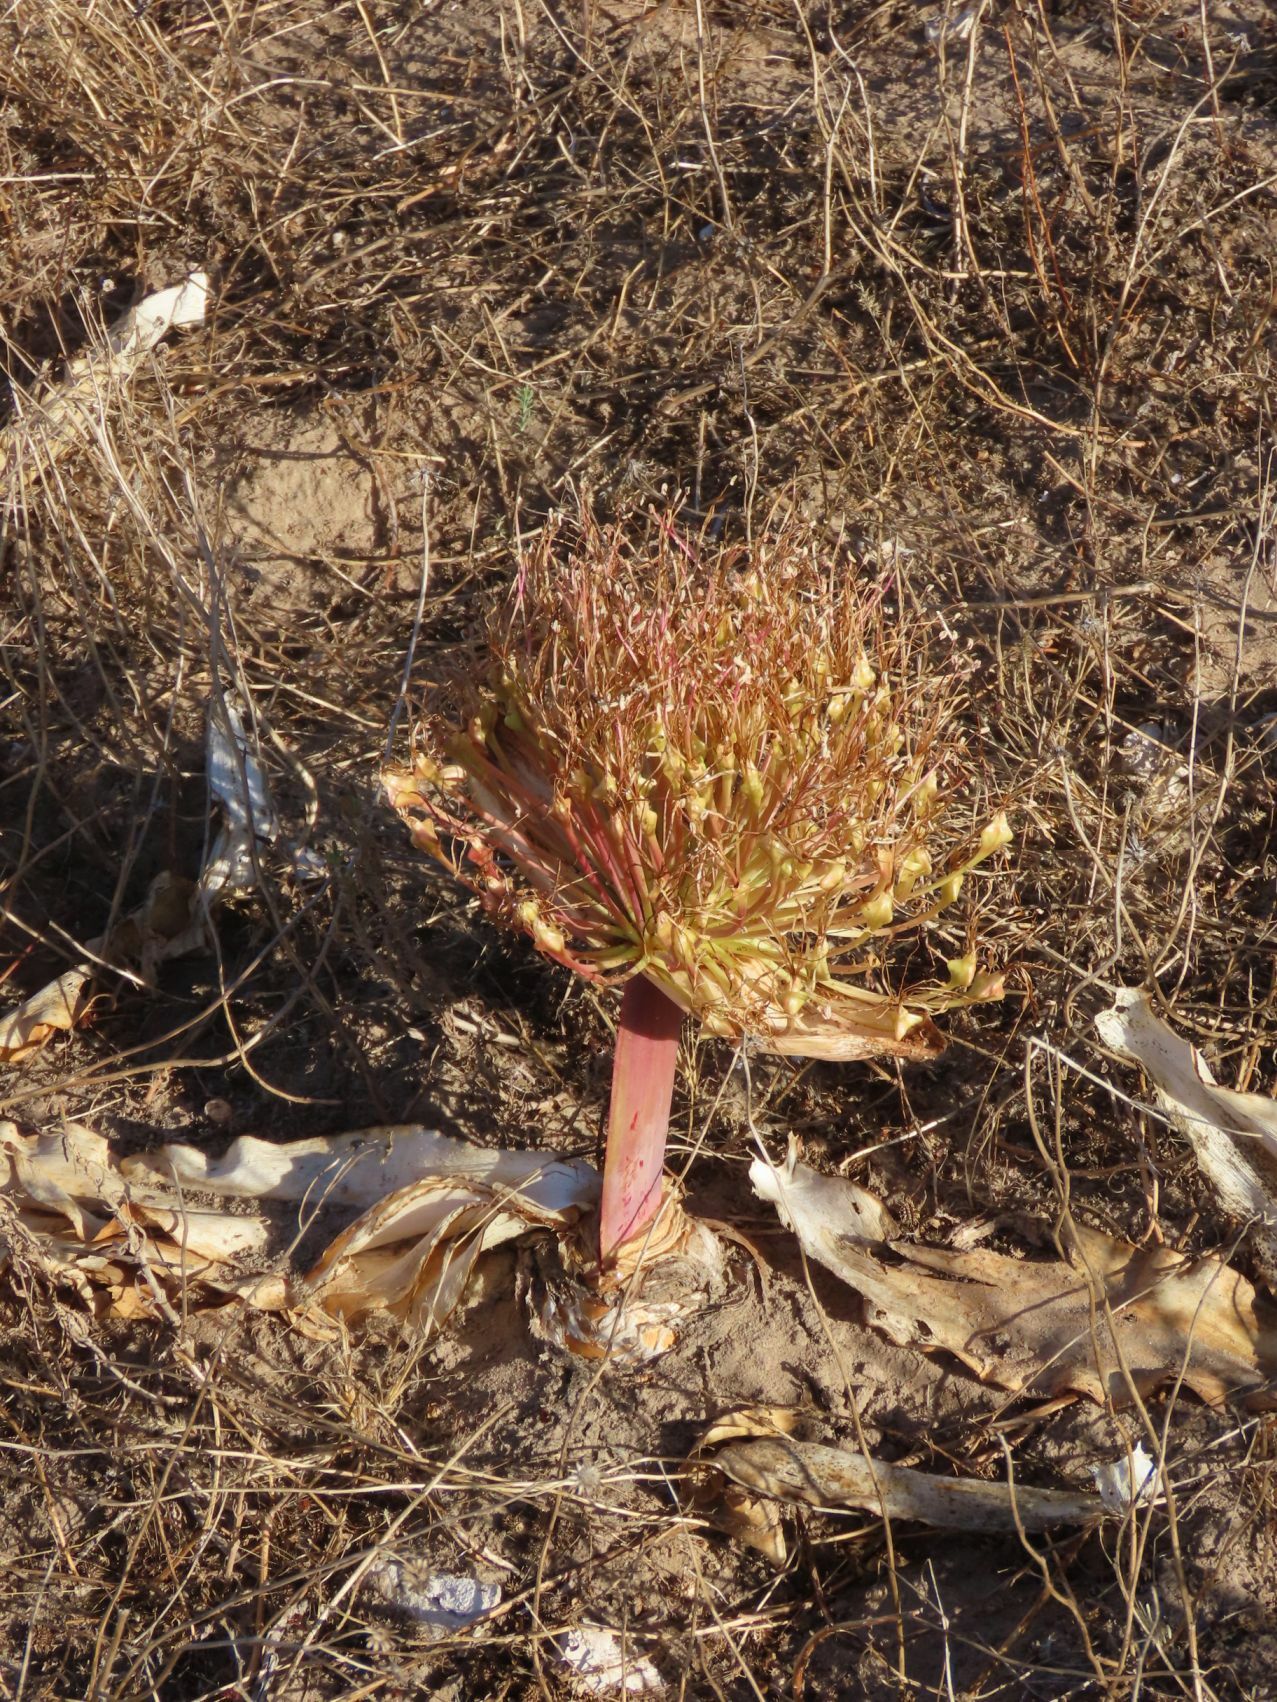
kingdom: Plantae
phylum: Tracheophyta
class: Liliopsida
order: Asparagales
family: Amaryllidaceae
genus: Boophone
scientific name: Boophone haemanthoides
